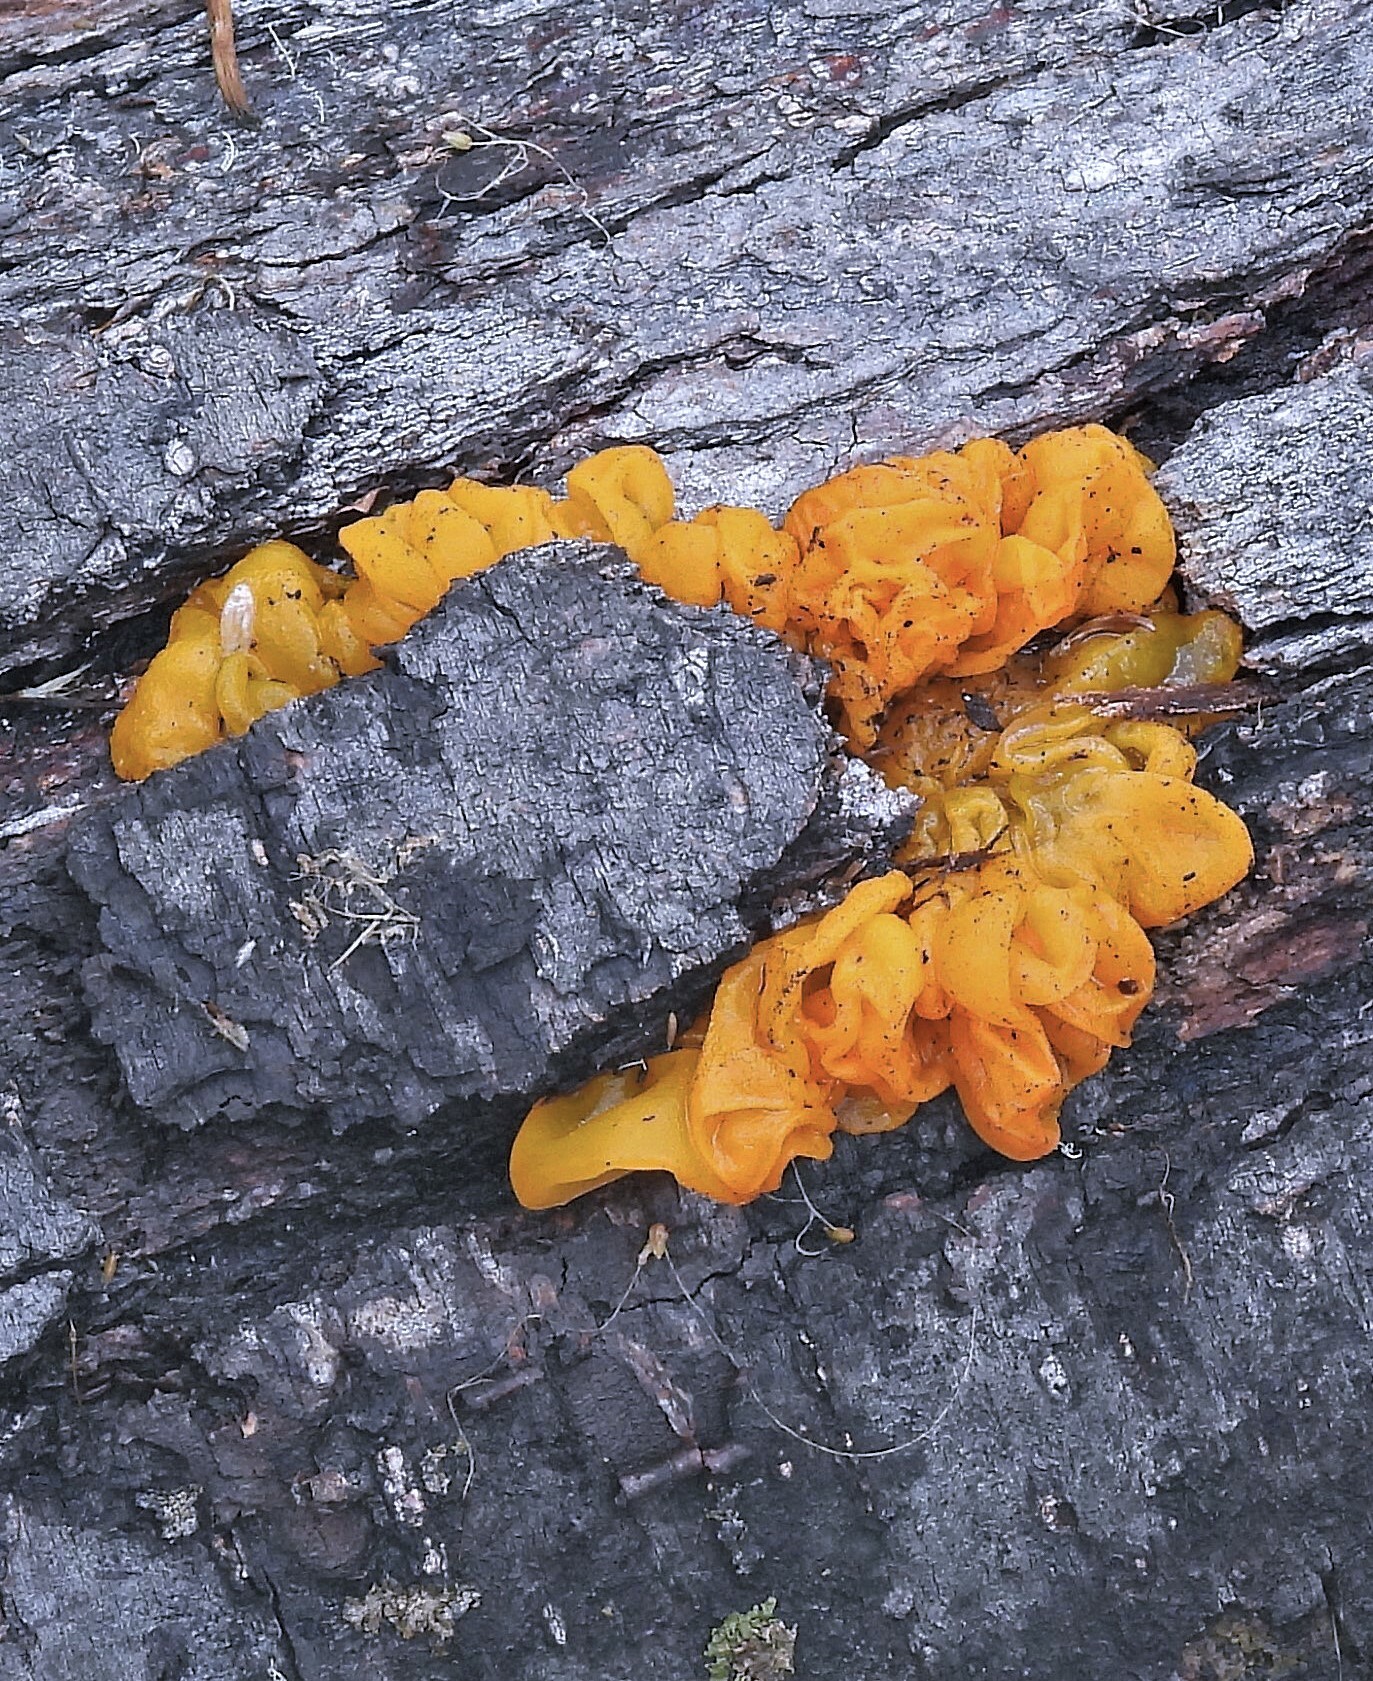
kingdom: Fungi
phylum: Basidiomycota
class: Tremellomycetes
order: Tremellales
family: Tremellaceae
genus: Tremella
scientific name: Tremella mesenterica
